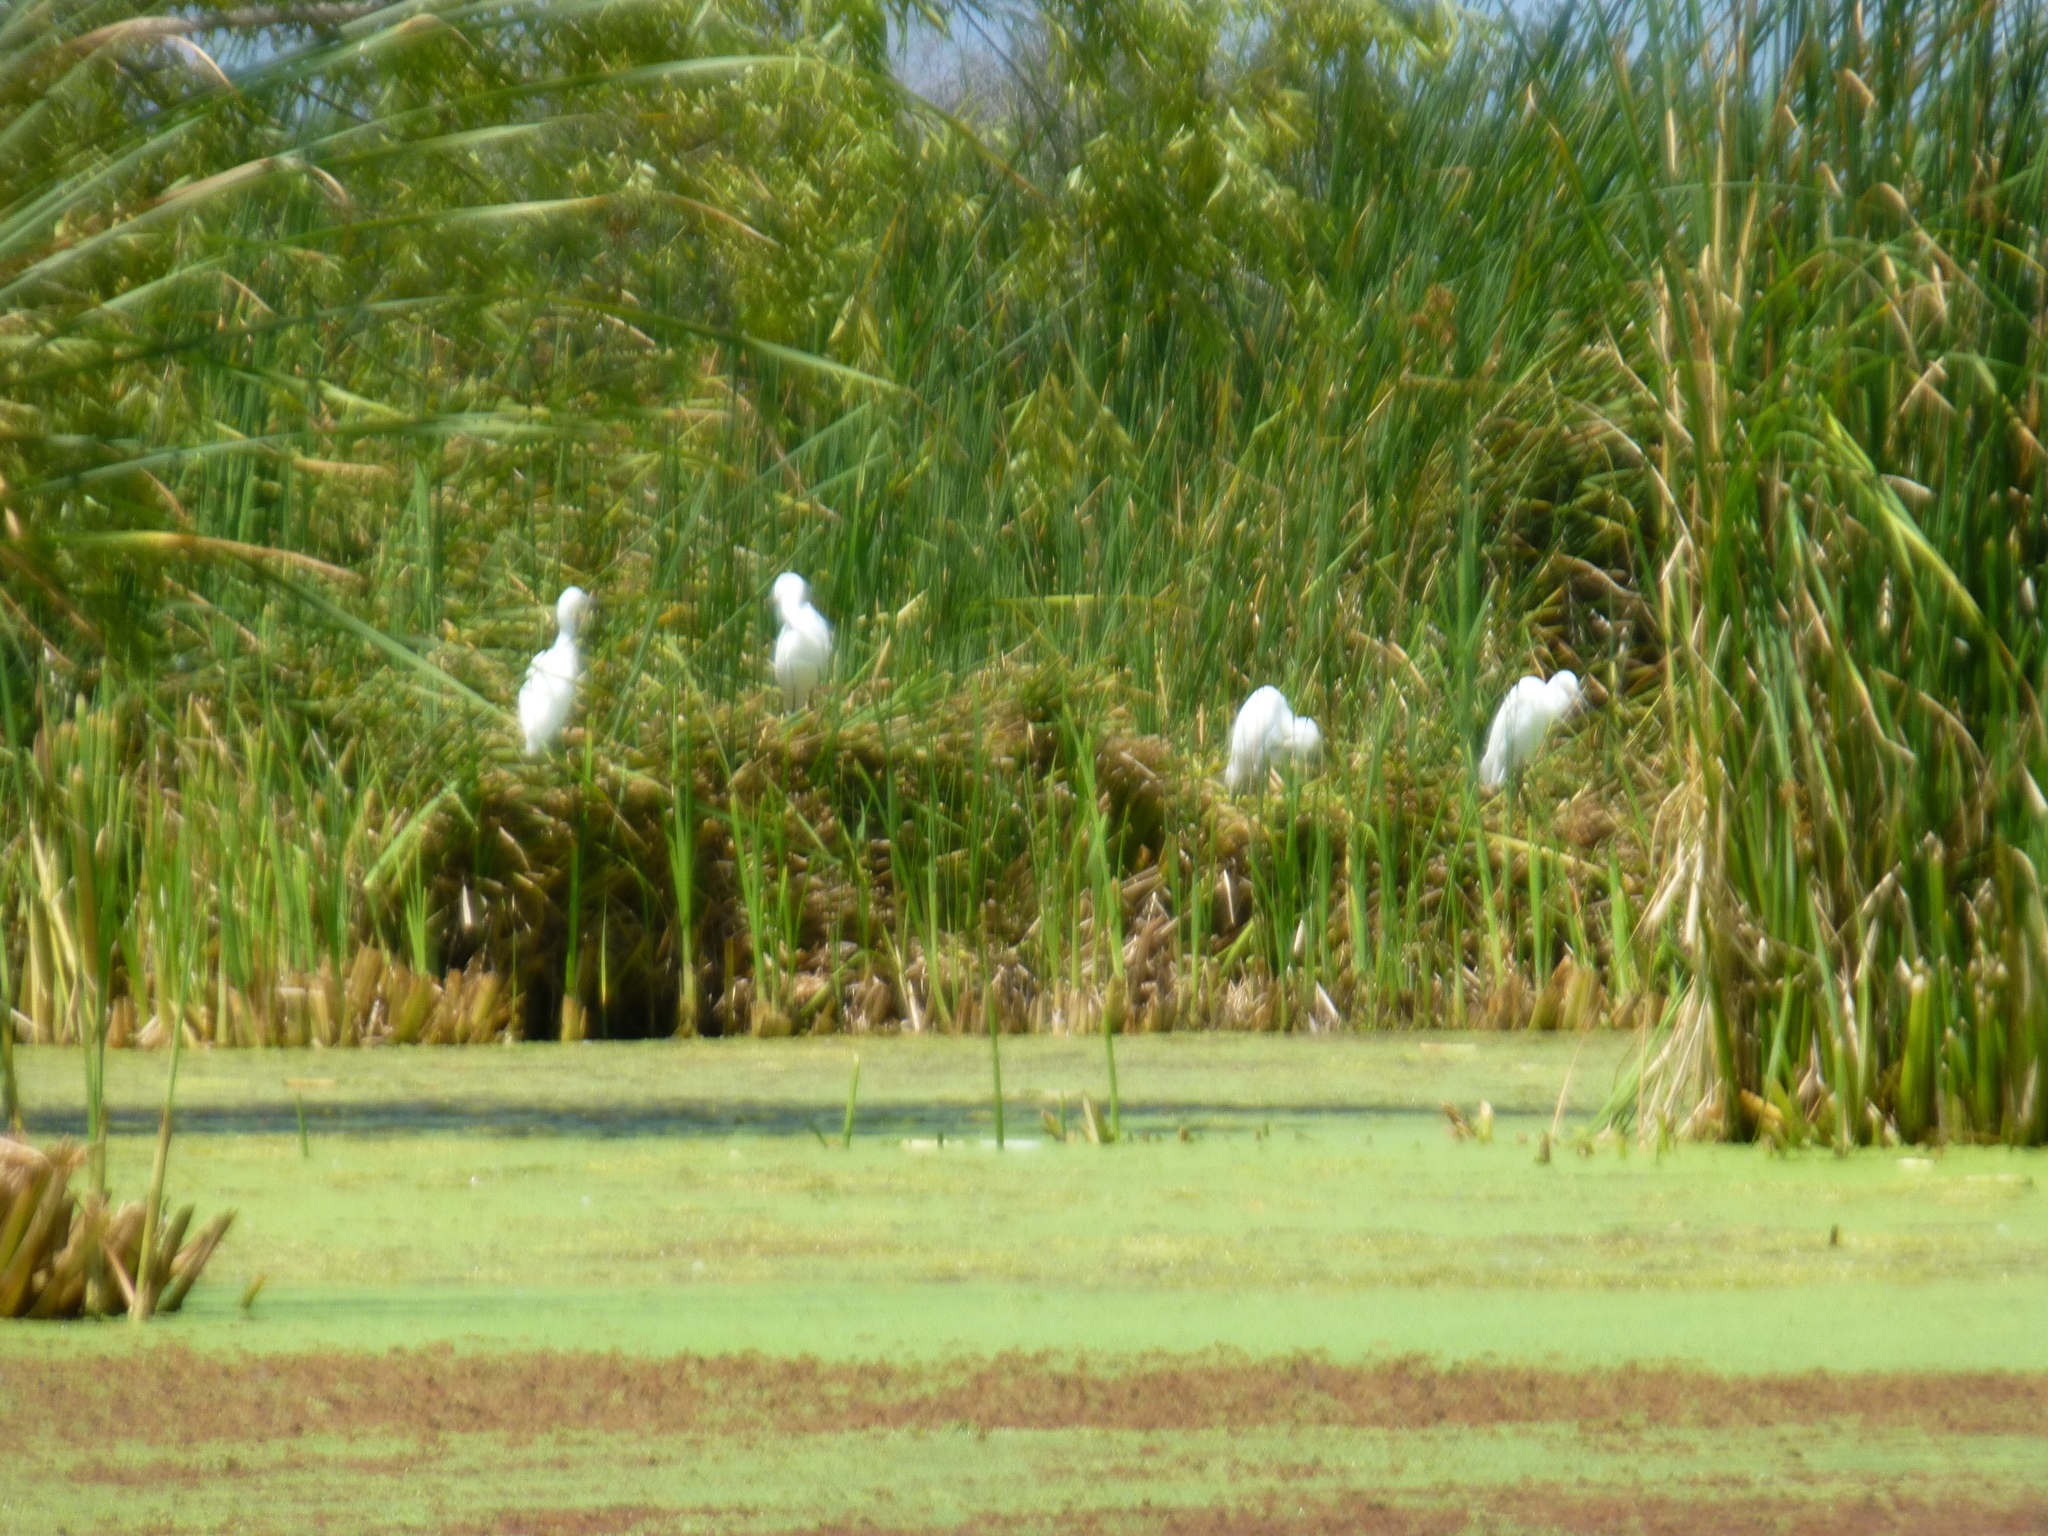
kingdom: Animalia
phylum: Chordata
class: Aves
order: Pelecaniformes
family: Ardeidae
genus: Egretta
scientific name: Egretta thula
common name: Snowy egret
